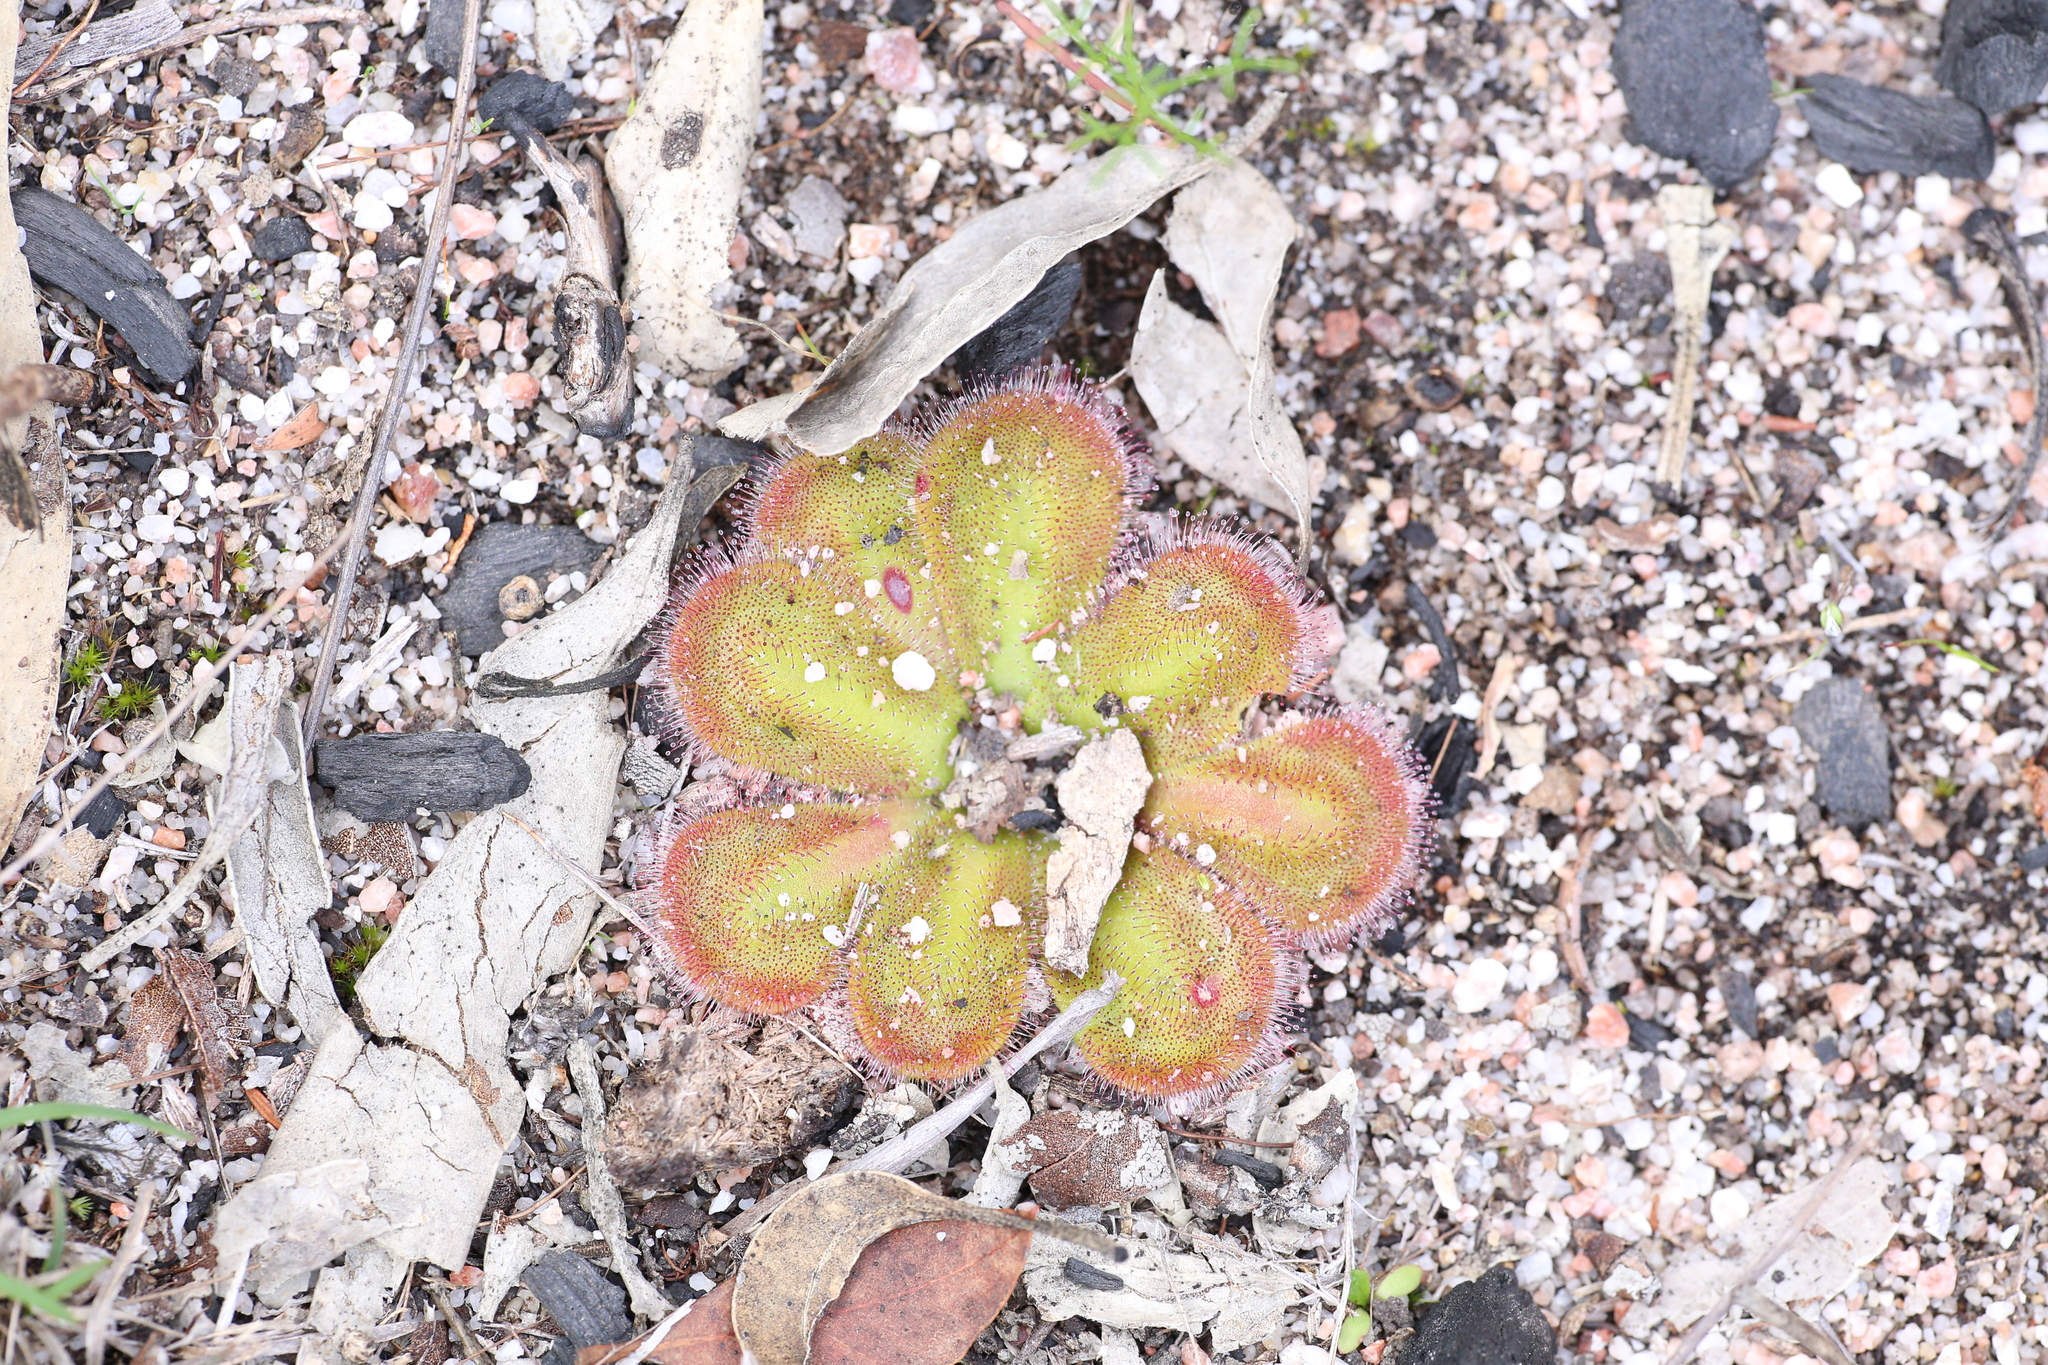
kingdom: Plantae
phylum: Tracheophyta
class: Magnoliopsida
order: Caryophyllales
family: Droseraceae
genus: Drosera
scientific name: Drosera erythrorhiza
